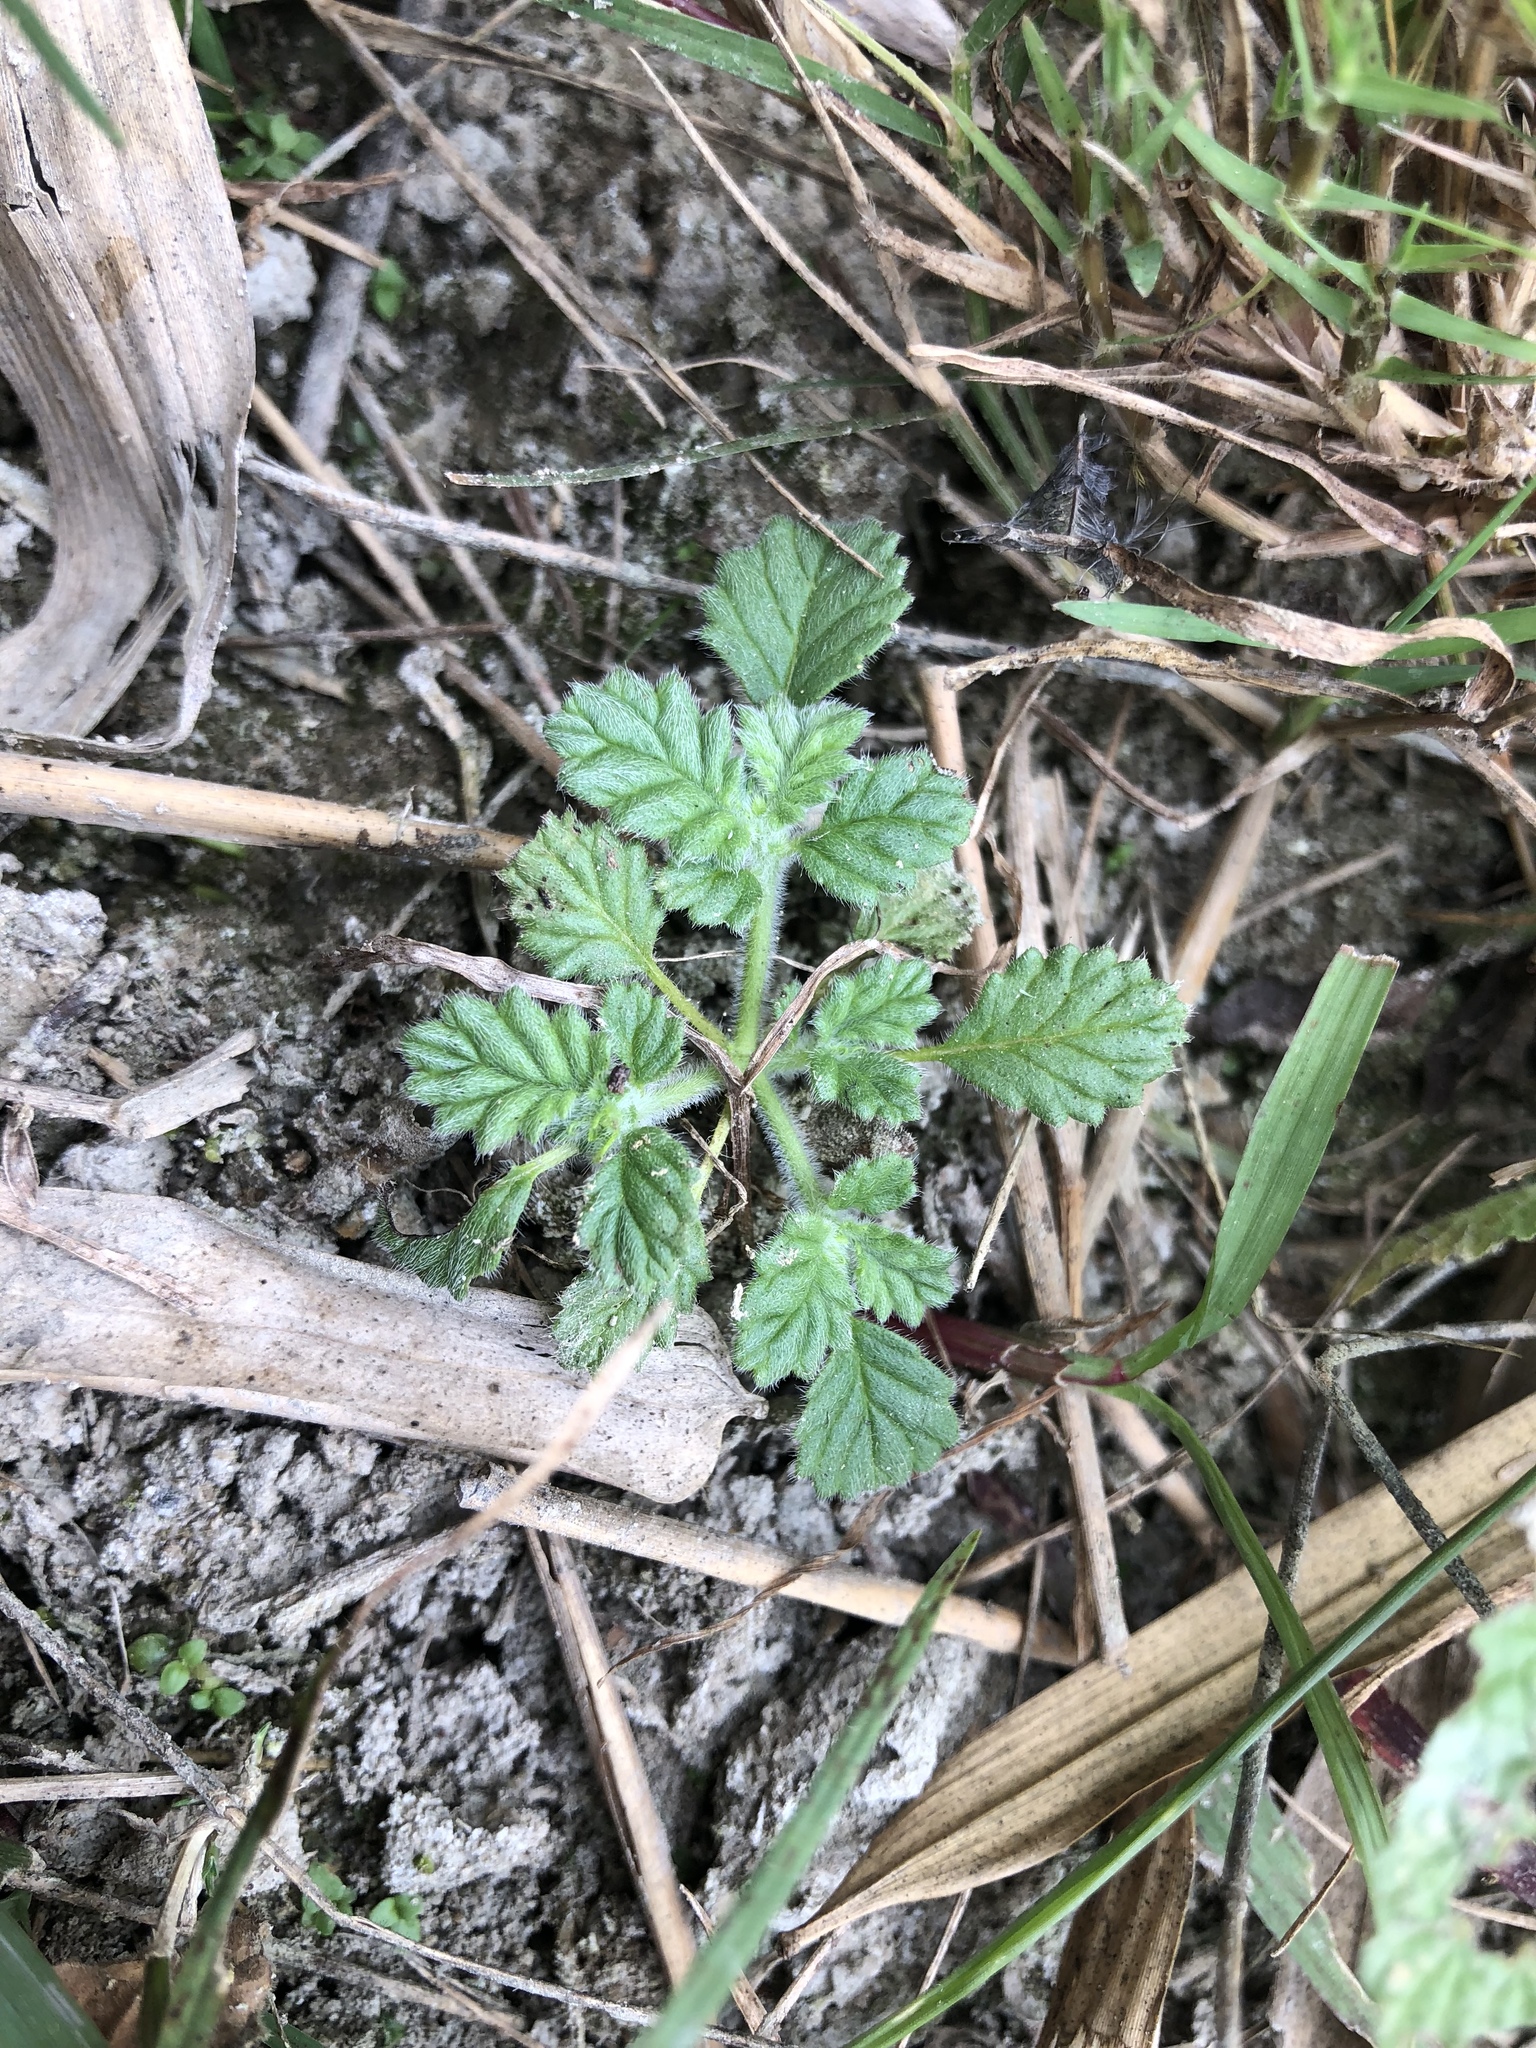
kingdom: Plantae
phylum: Tracheophyta
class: Magnoliopsida
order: Boraginales
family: Coldeniaceae
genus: Coldenia
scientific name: Coldenia procumbens
